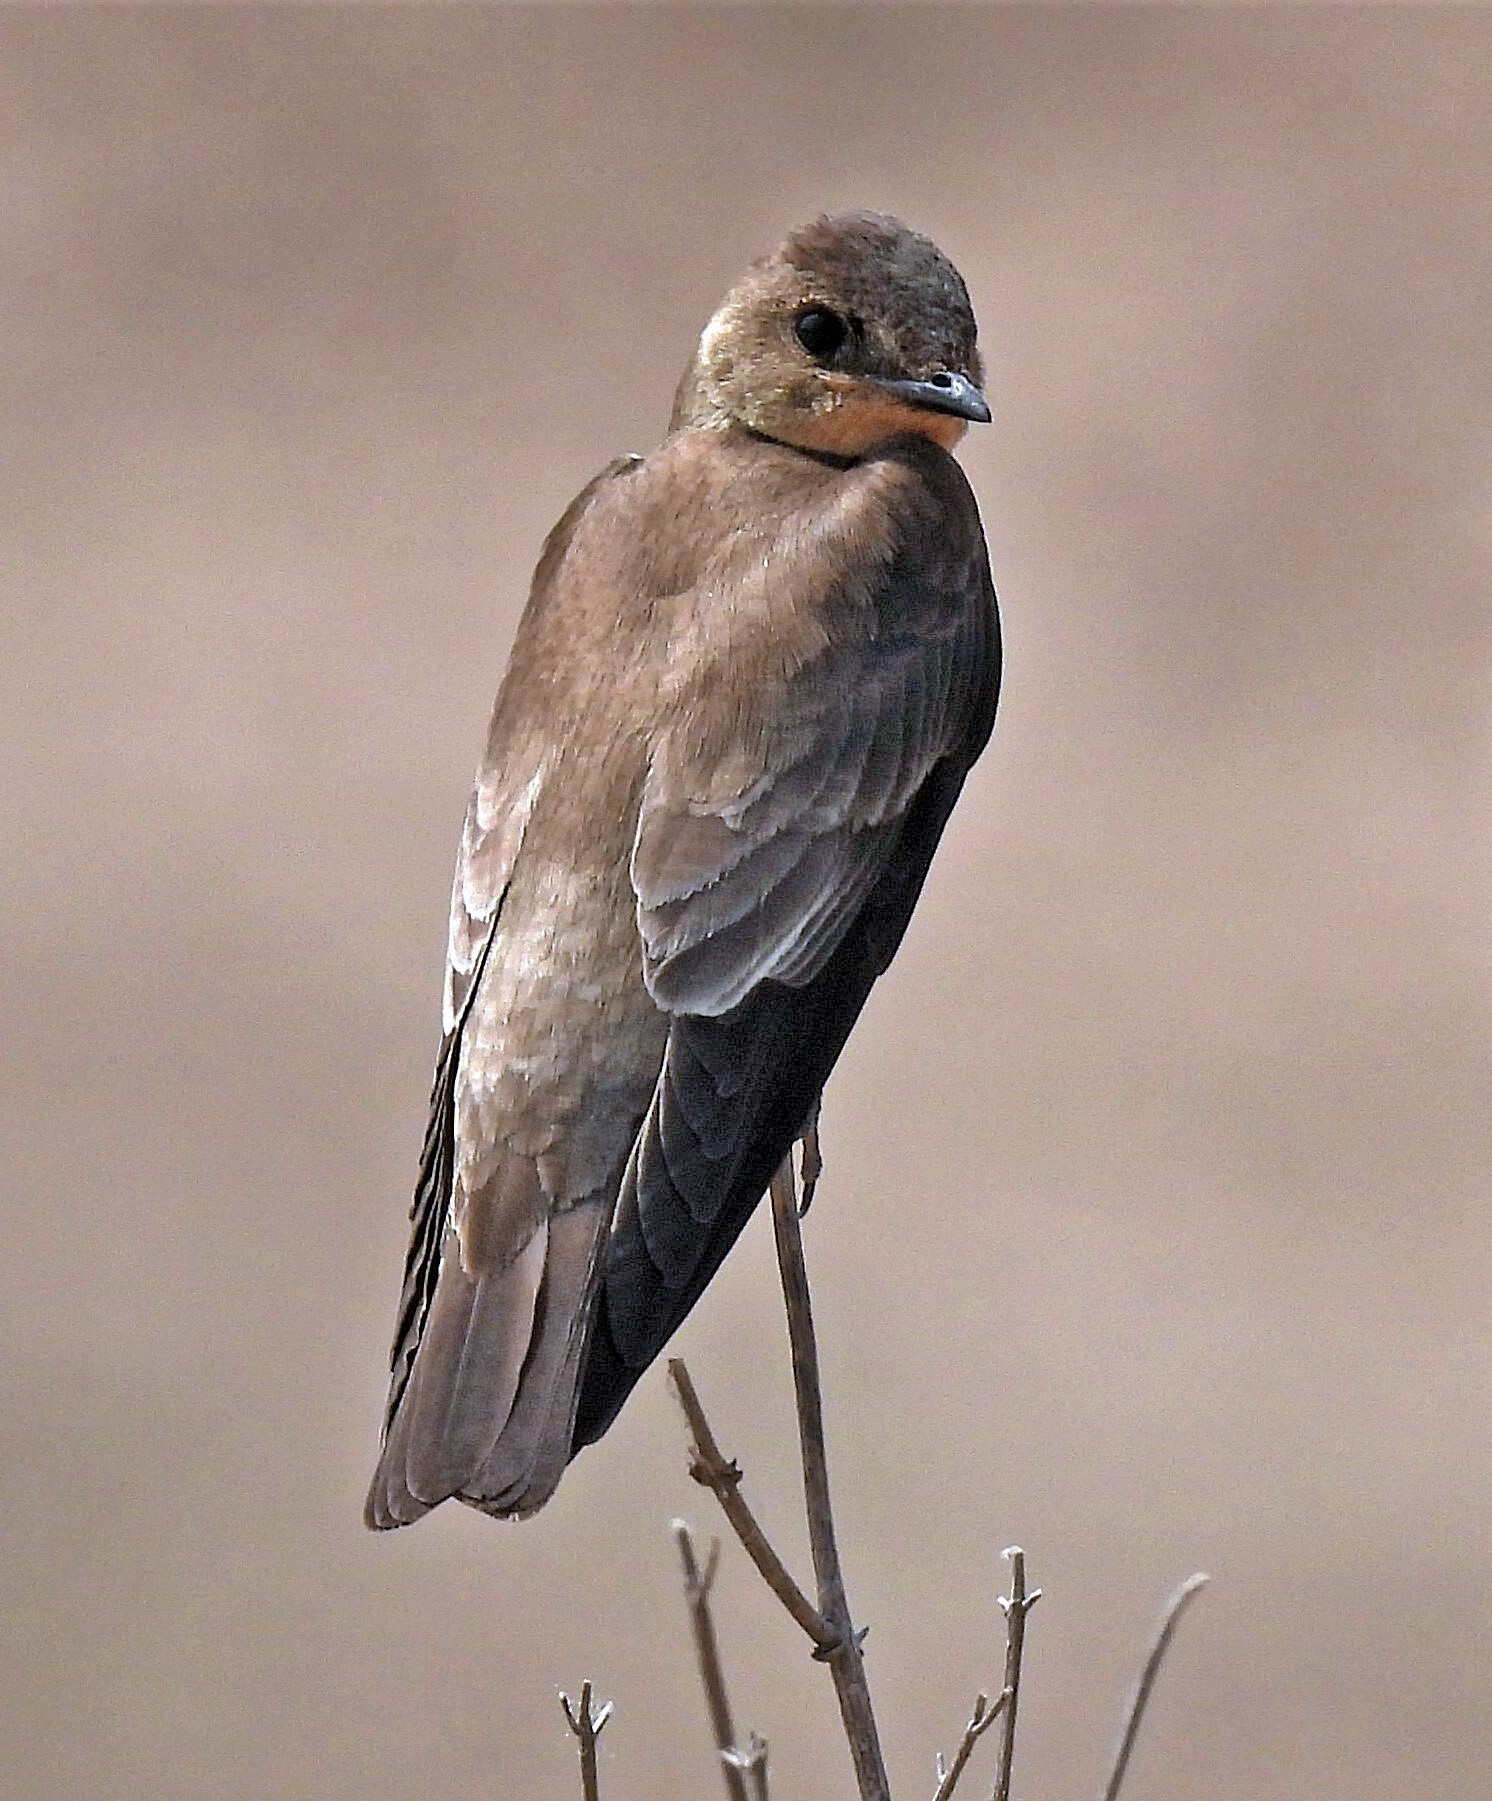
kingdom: Animalia
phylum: Chordata
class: Aves
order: Passeriformes
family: Hirundinidae
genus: Stelgidopteryx
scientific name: Stelgidopteryx ruficollis
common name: Southern rough-winged swallow
